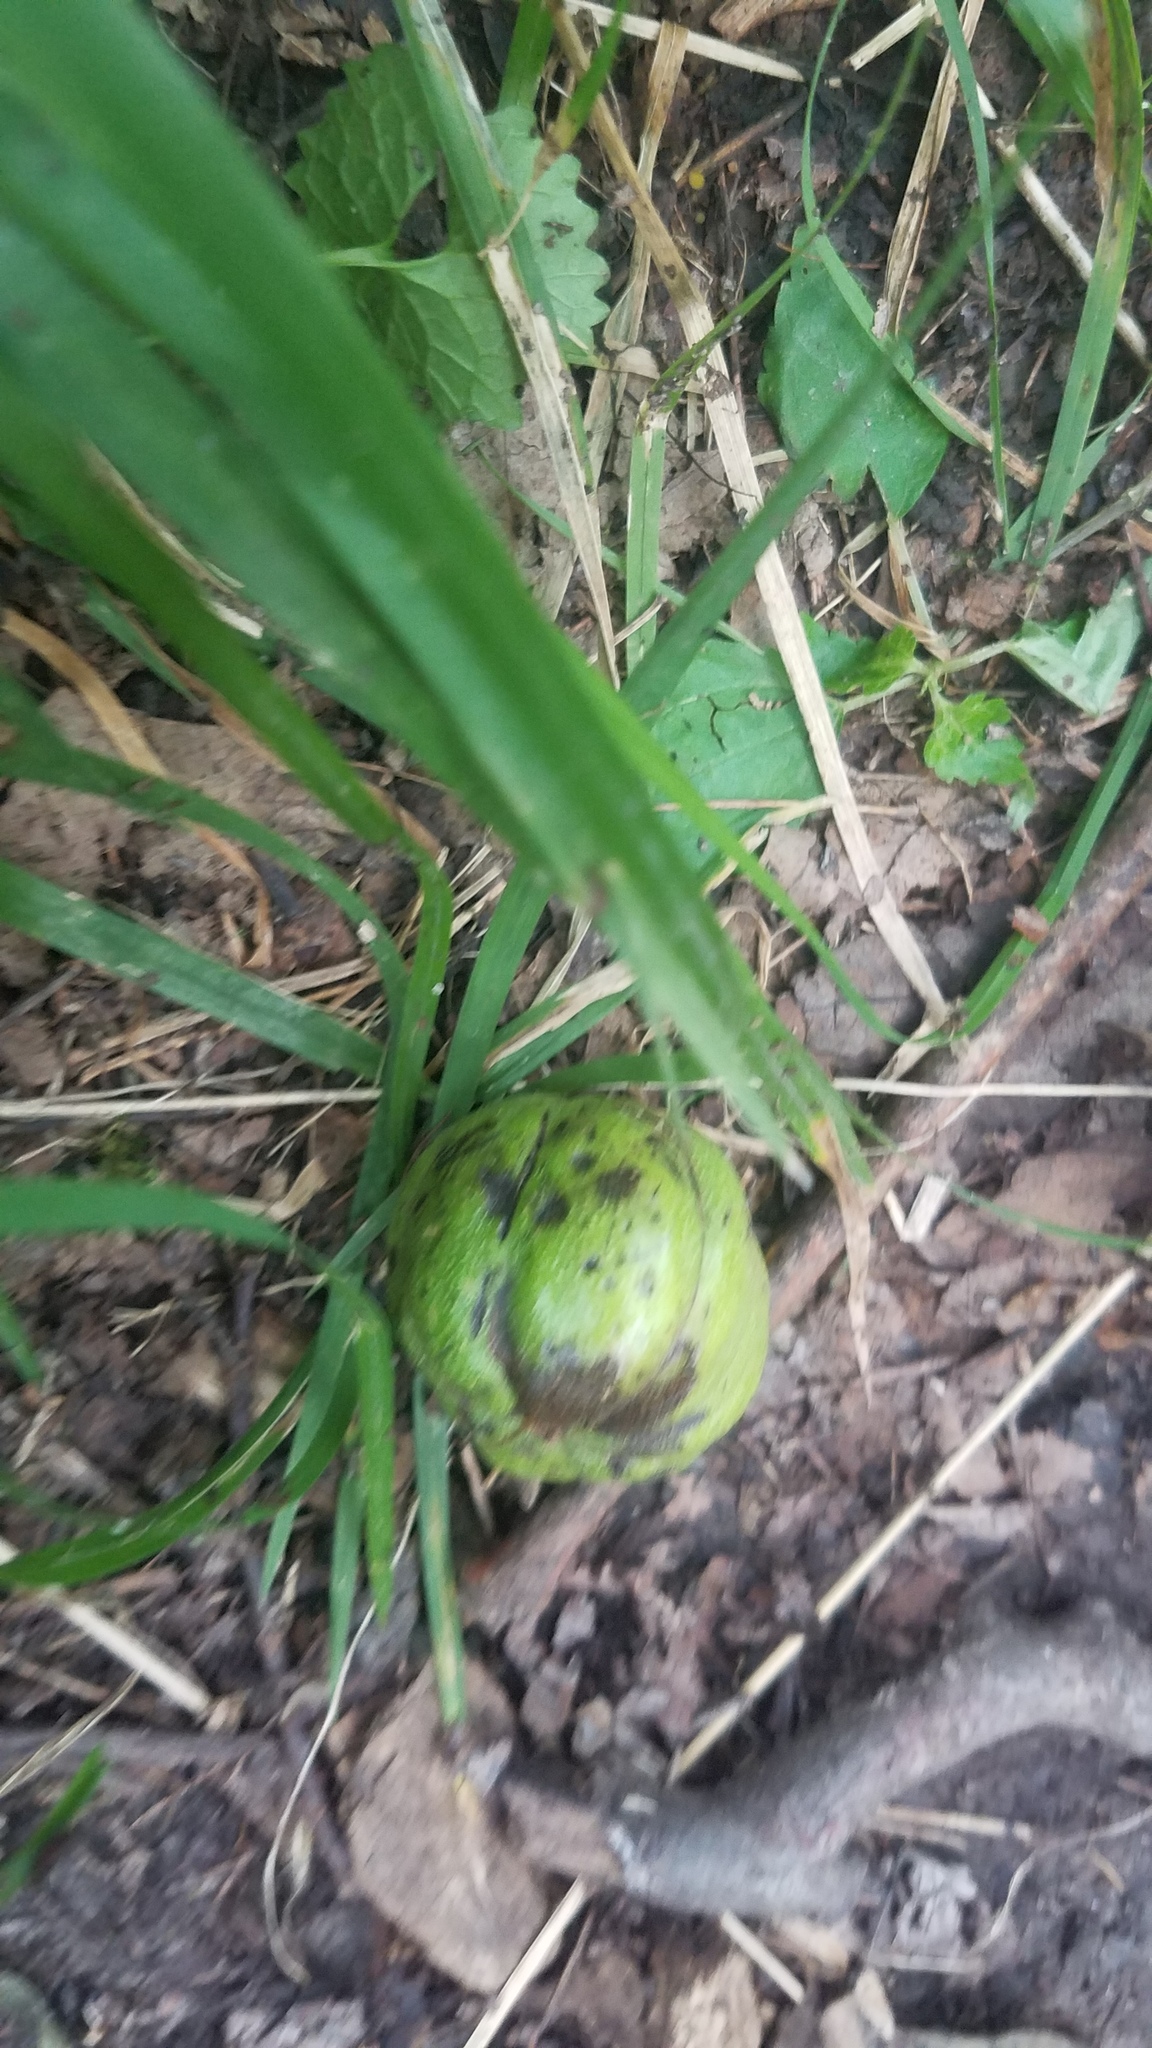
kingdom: Plantae
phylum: Tracheophyta
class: Magnoliopsida
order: Fagales
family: Juglandaceae
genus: Carya
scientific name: Carya ovata
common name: Shagbark hickory
